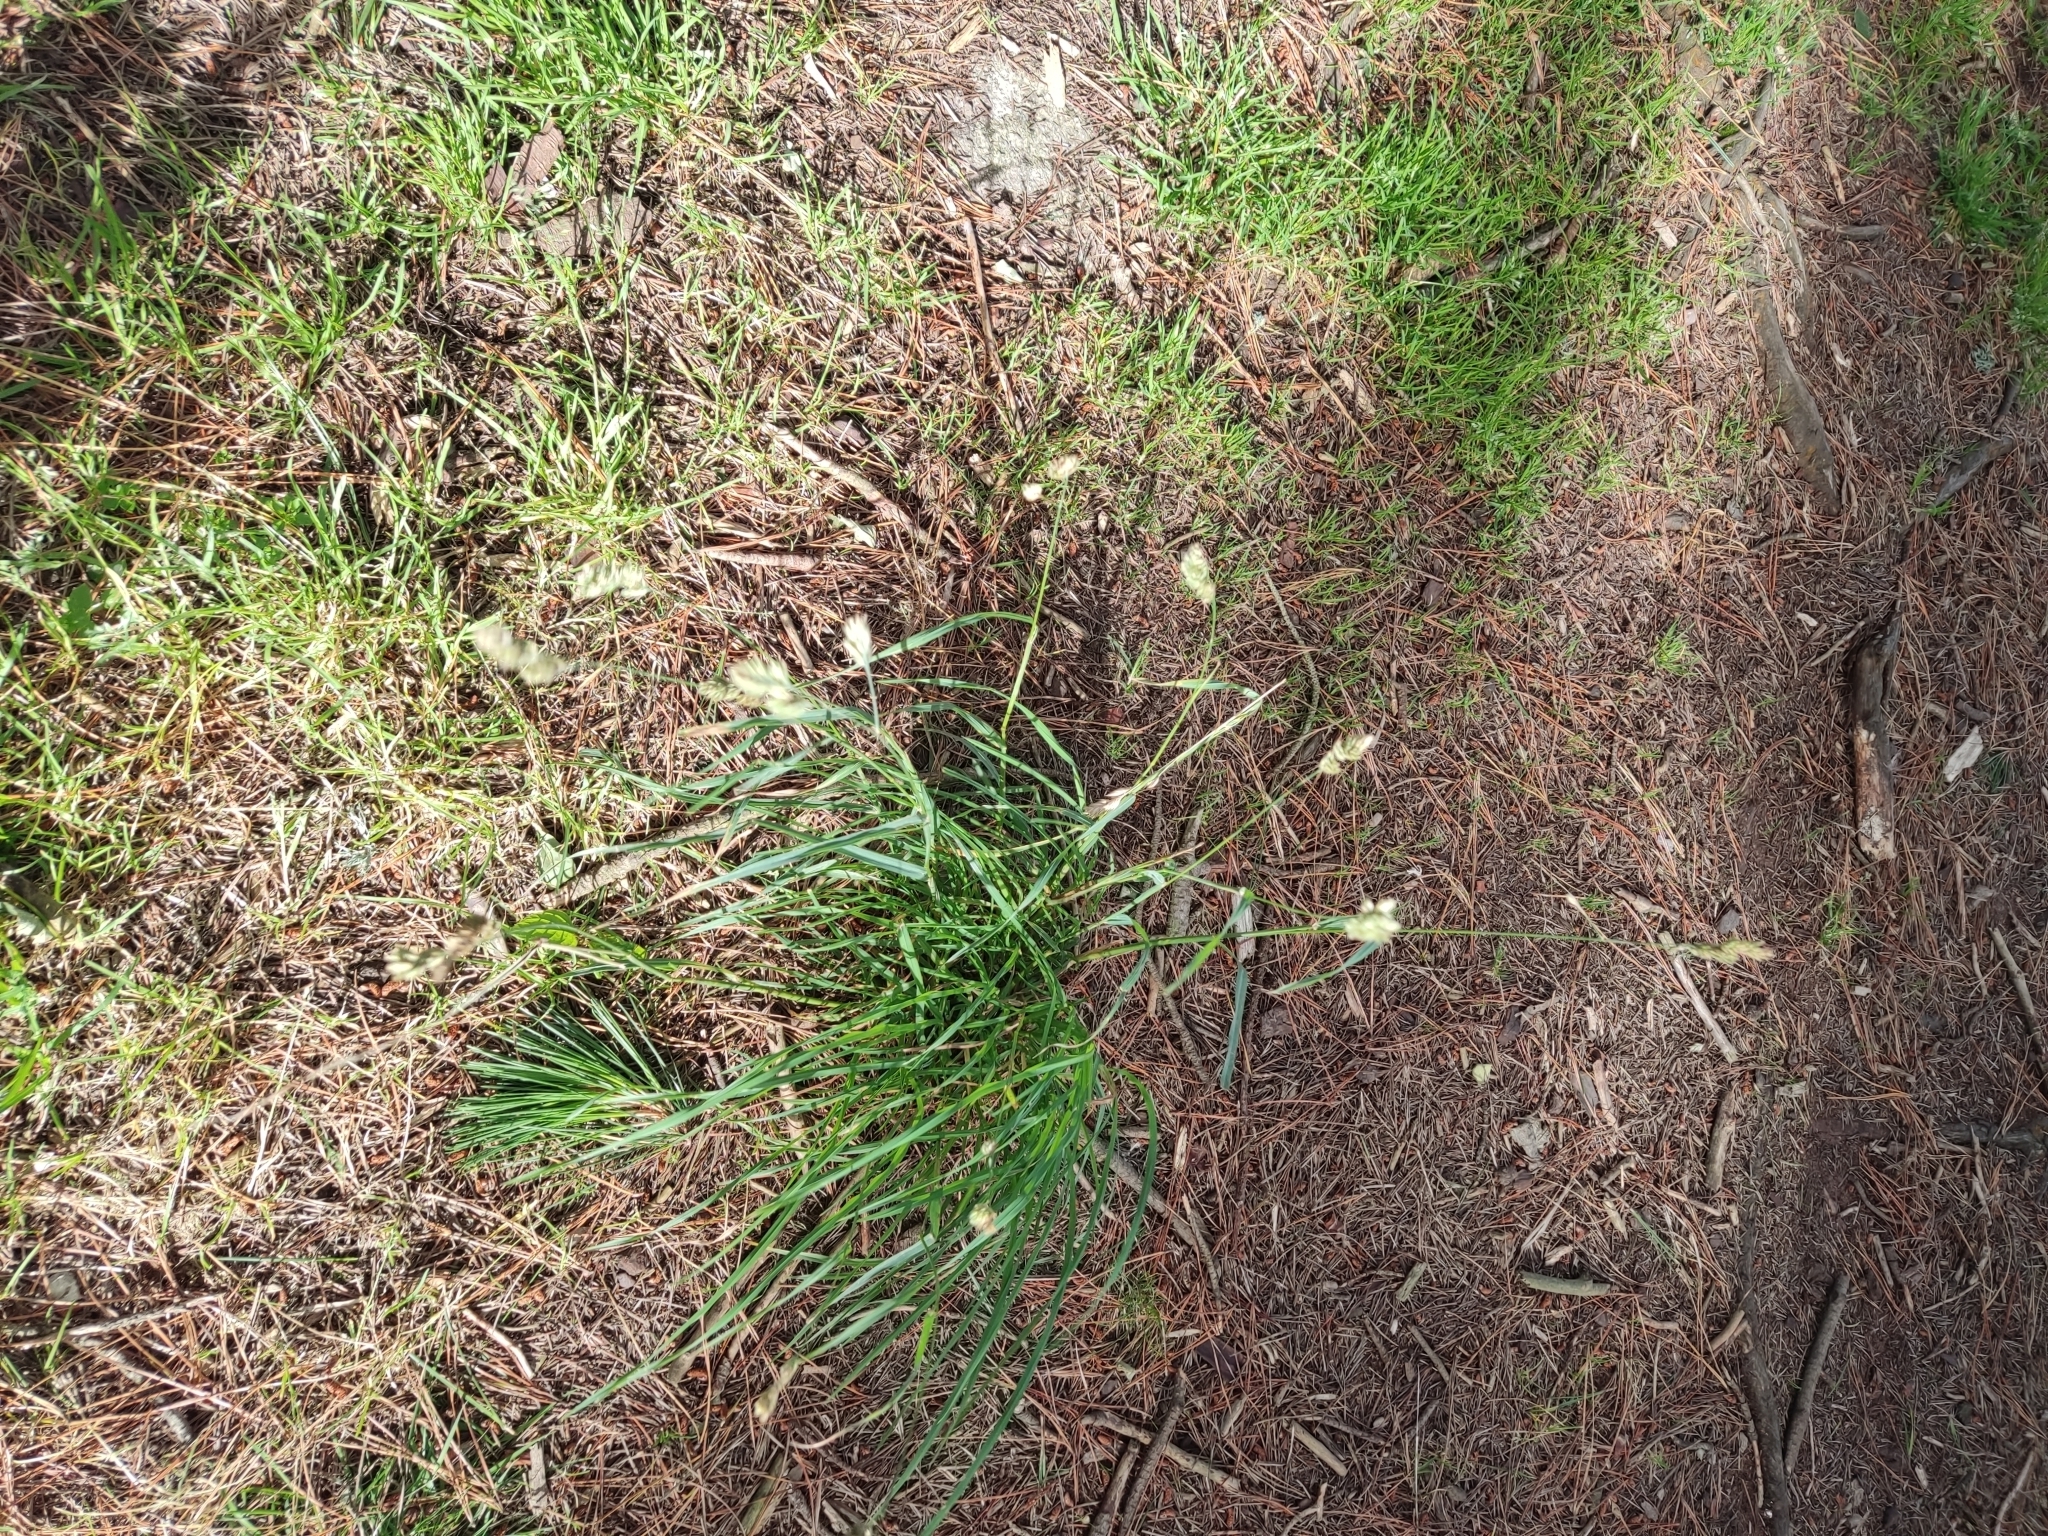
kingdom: Plantae
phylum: Tracheophyta
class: Liliopsida
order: Poales
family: Poaceae
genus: Dactylis
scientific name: Dactylis glomerata
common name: Orchardgrass
